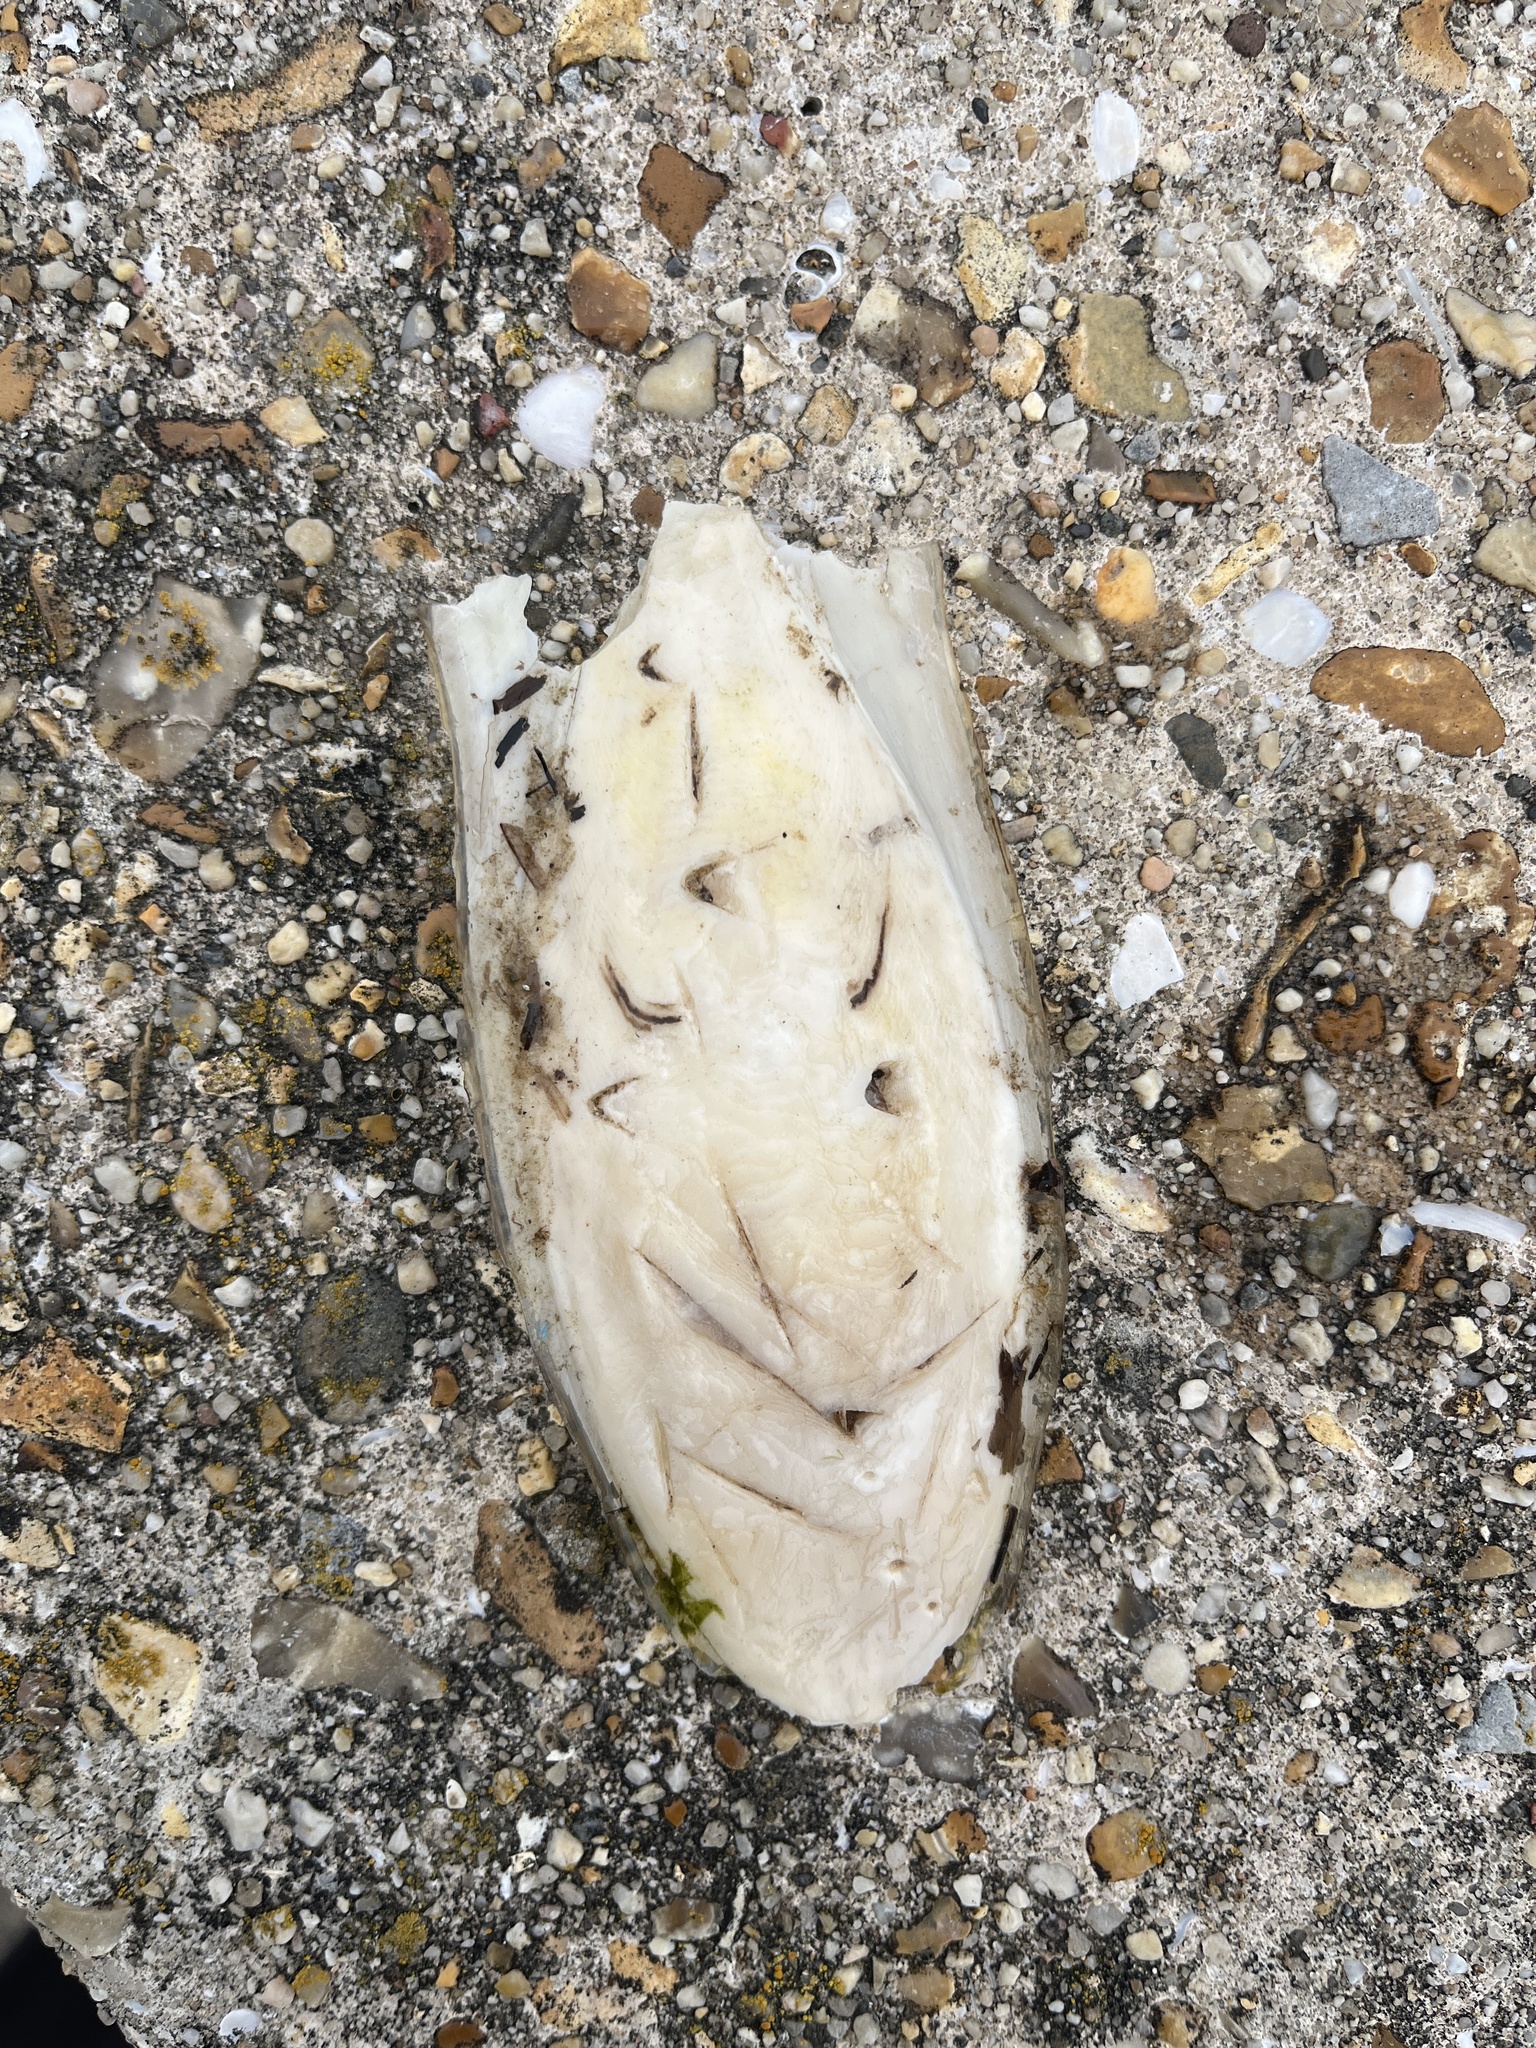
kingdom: Animalia
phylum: Mollusca
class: Cephalopoda
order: Sepiida
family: Sepiidae
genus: Sepia
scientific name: Sepia officinalis
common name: Common cuttlefish
